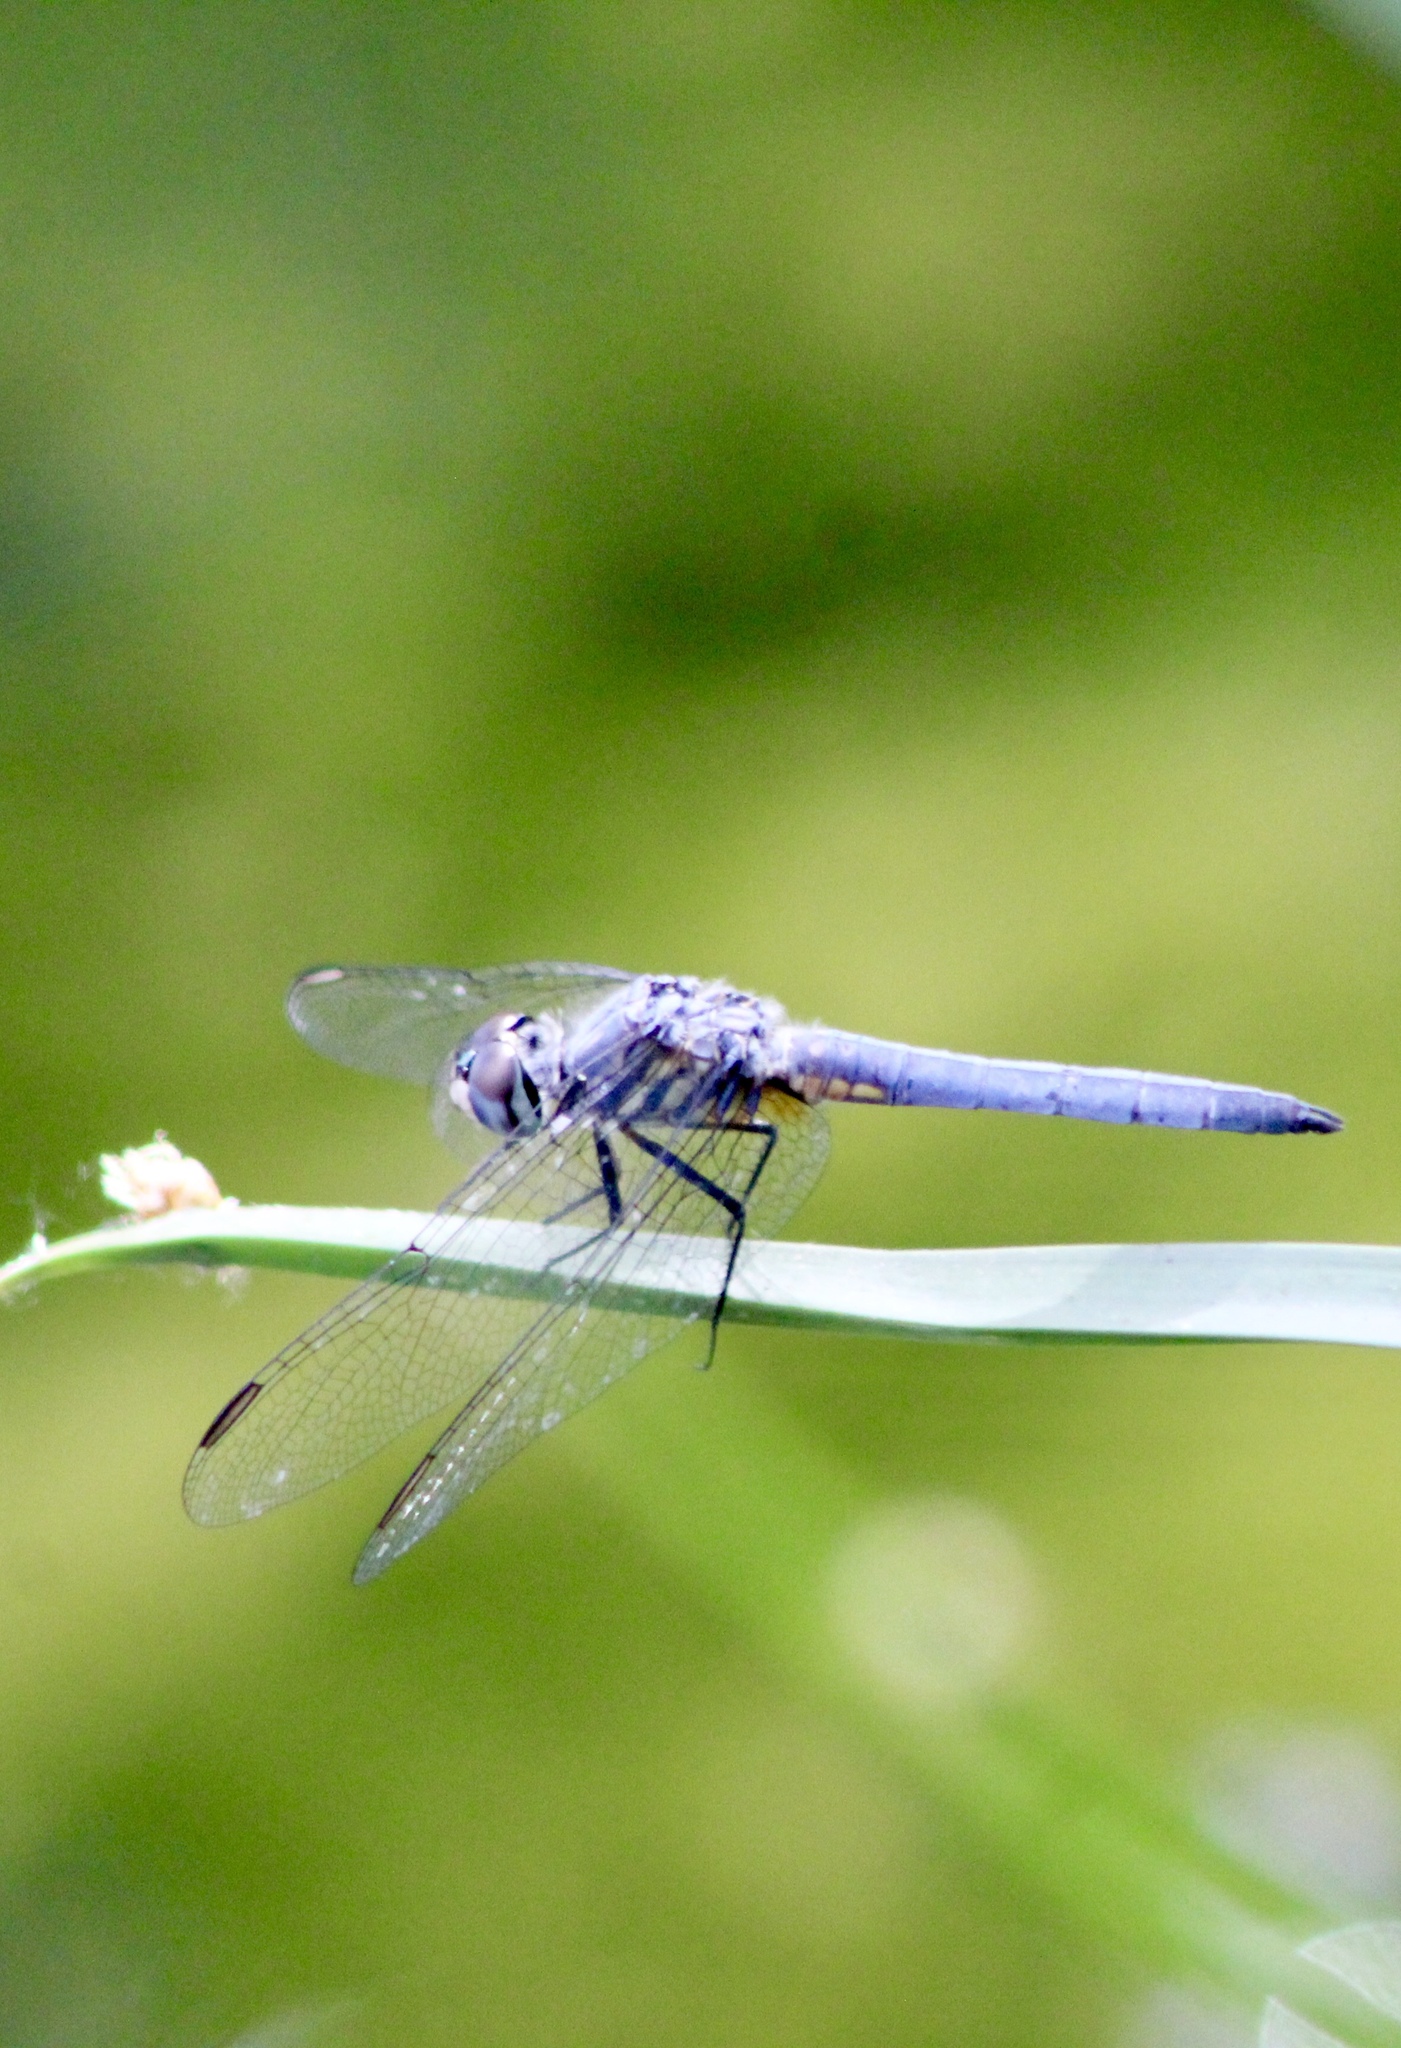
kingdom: Animalia
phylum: Arthropoda
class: Insecta
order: Odonata
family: Libellulidae
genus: Pachydiplax
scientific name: Pachydiplax longipennis
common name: Blue dasher
